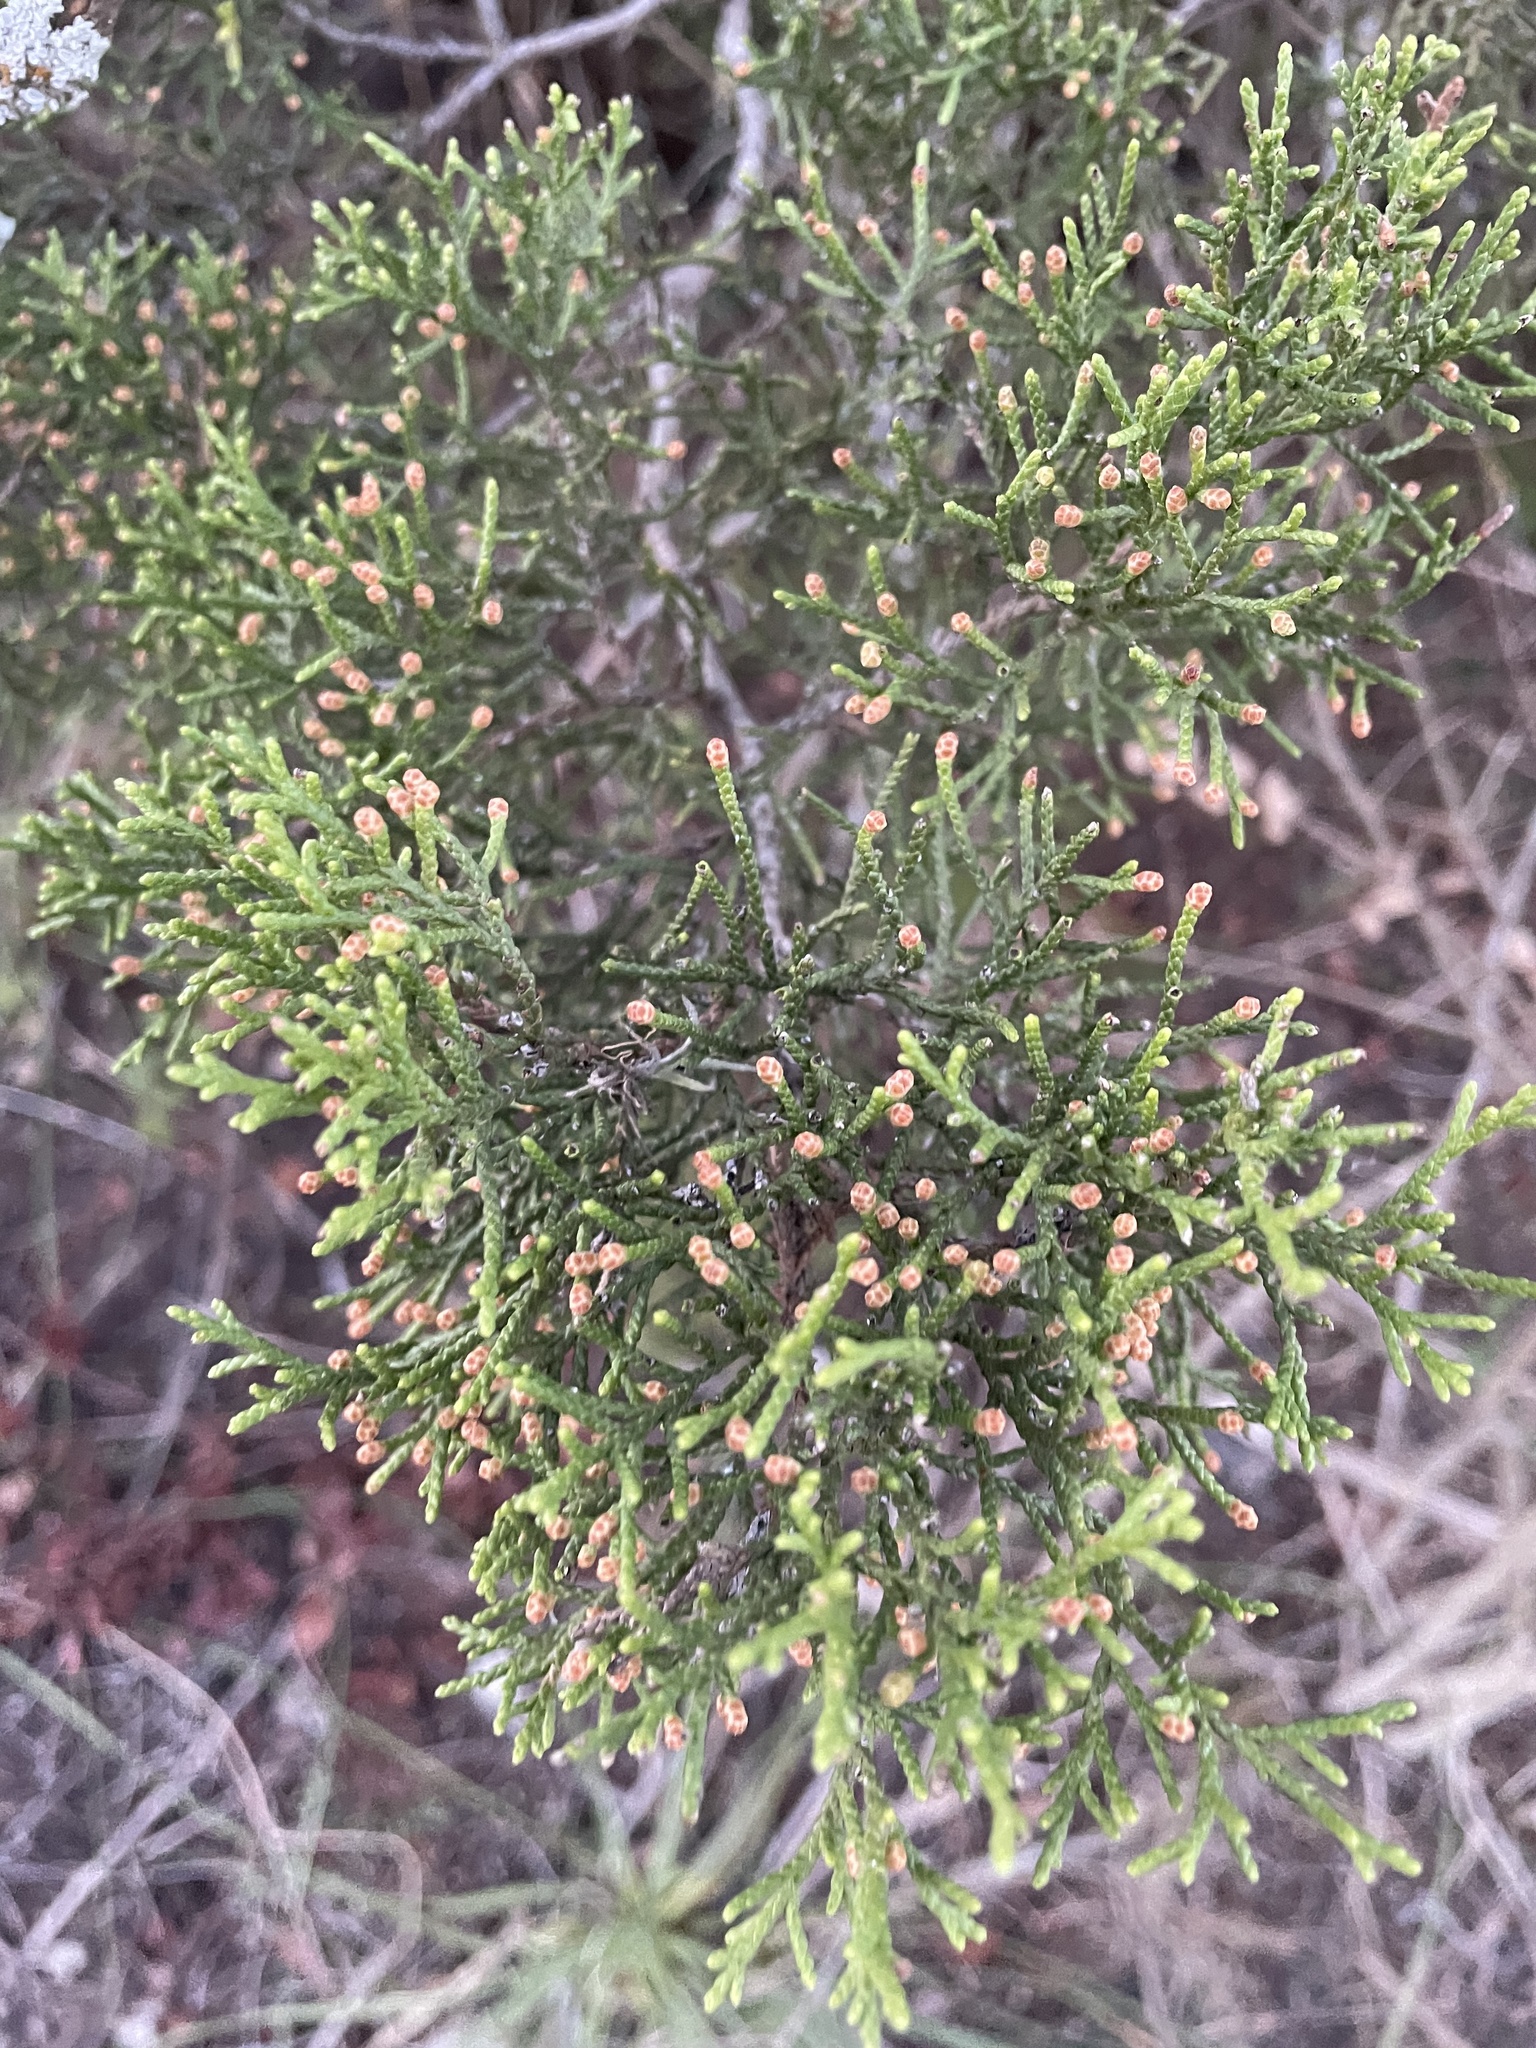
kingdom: Plantae
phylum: Tracheophyta
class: Pinopsida
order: Pinales
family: Cupressaceae
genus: Juniperus
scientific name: Juniperus ashei
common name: Mexican juniper
